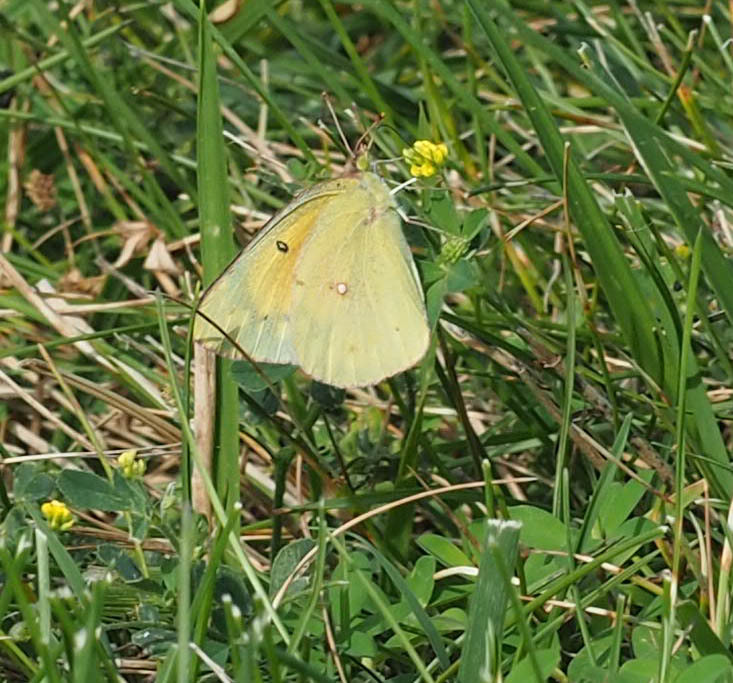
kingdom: Animalia
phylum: Arthropoda
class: Insecta
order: Lepidoptera
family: Pieridae
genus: Colias
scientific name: Colias eurytheme
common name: Alfalfa butterfly
